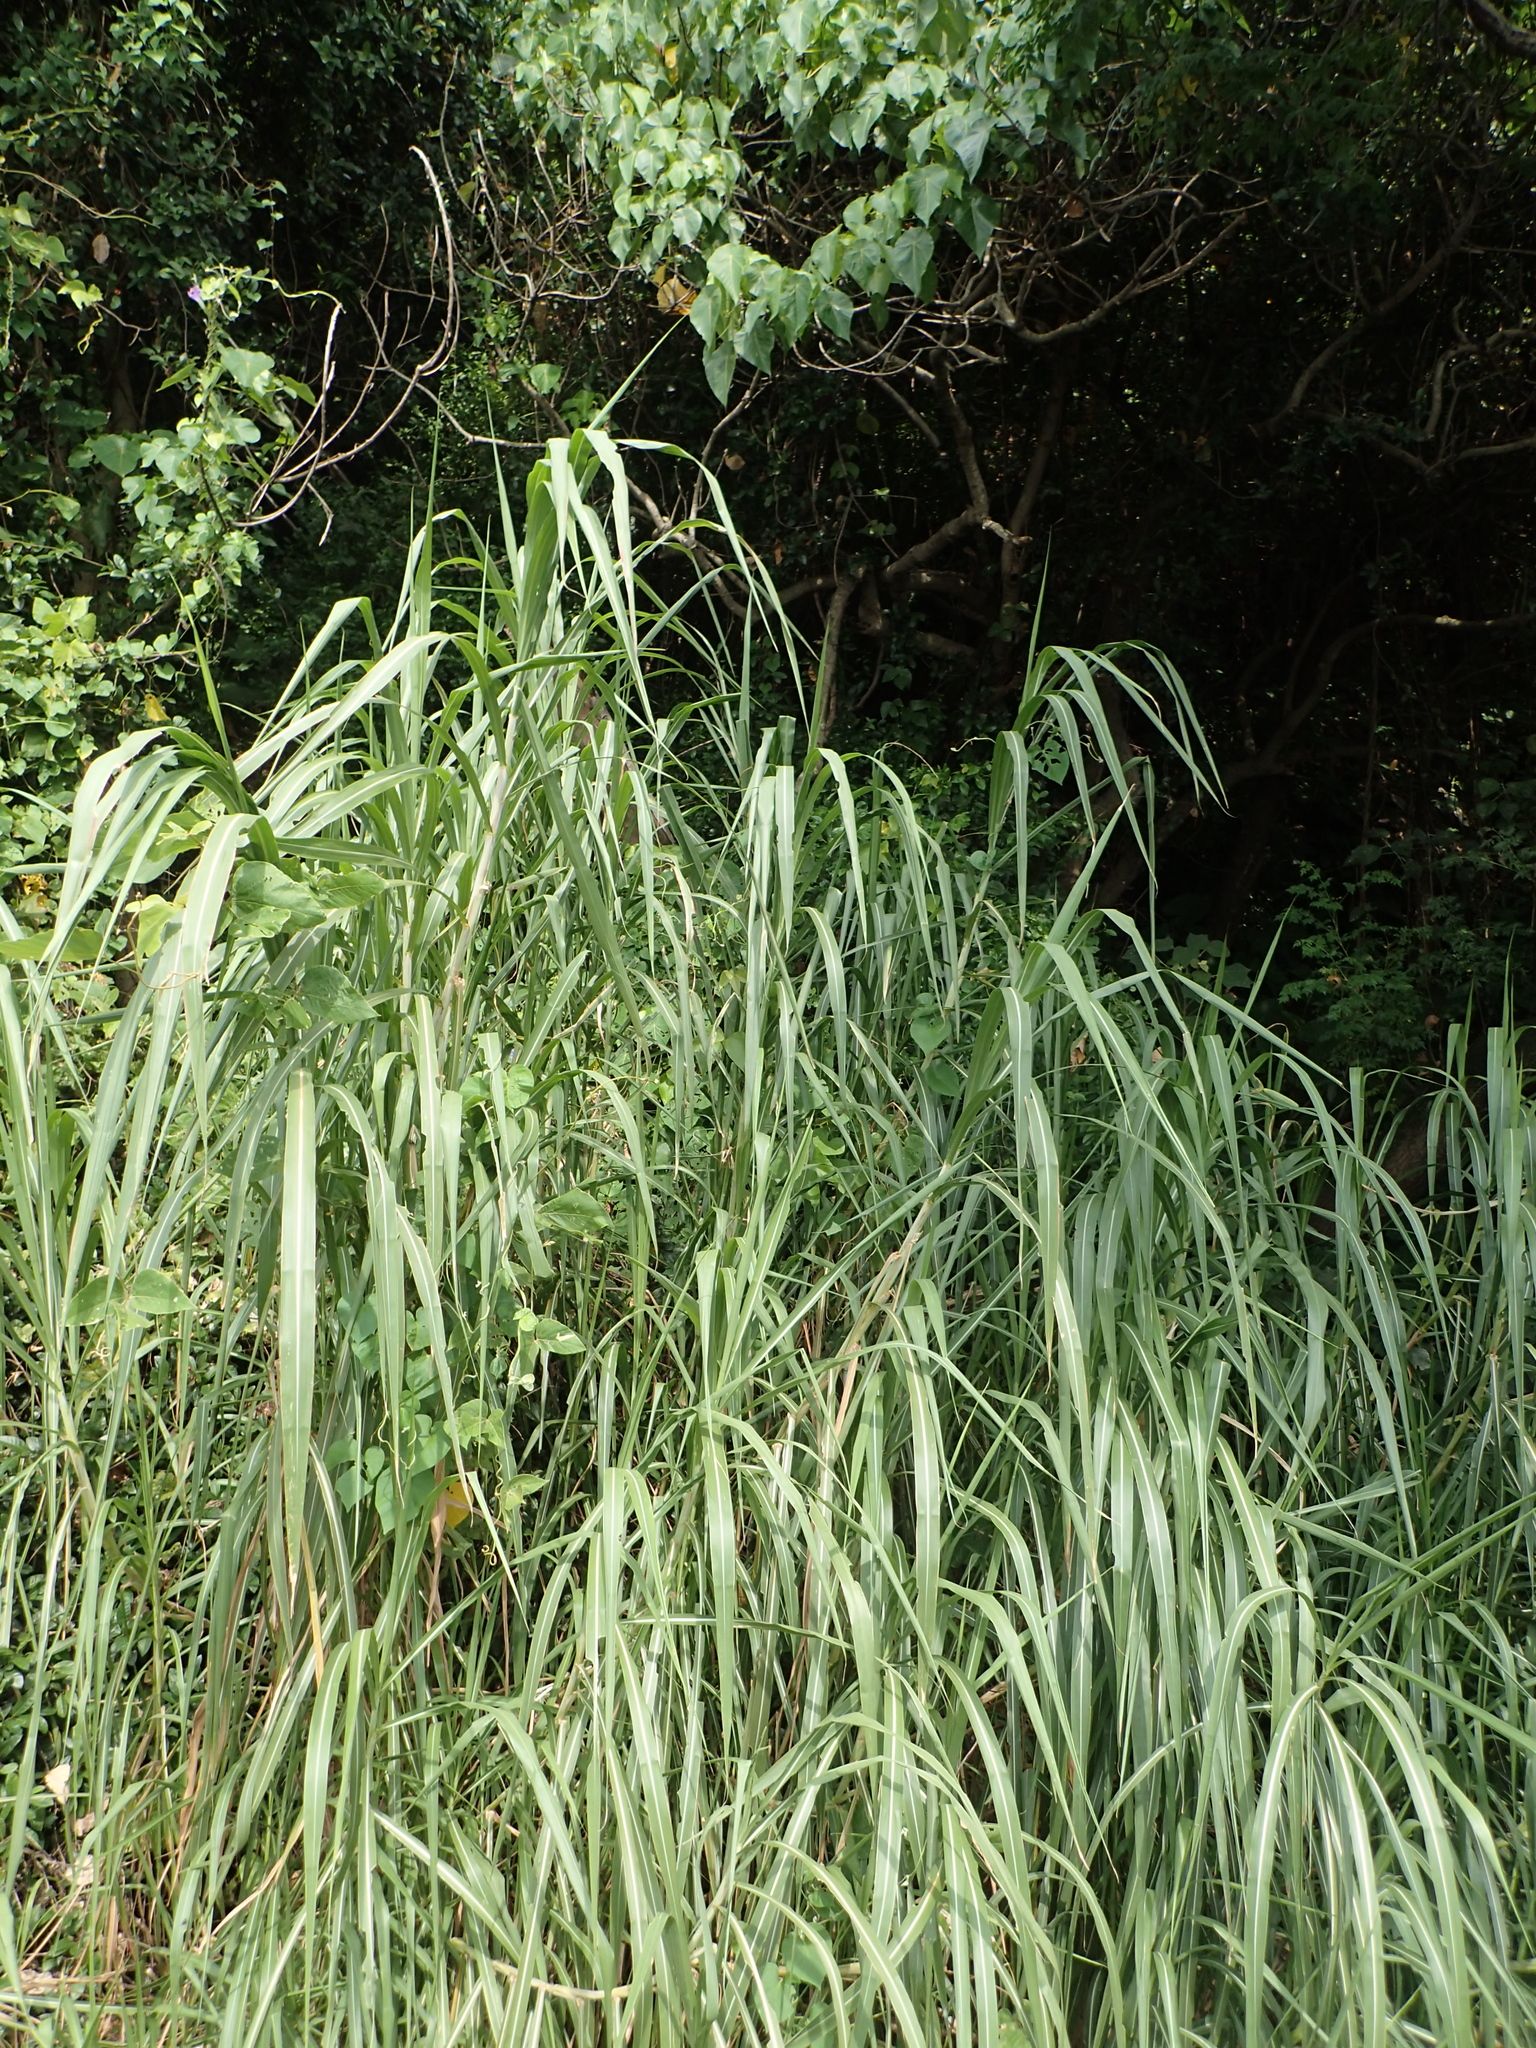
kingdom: Plantae
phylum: Tracheophyta
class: Liliopsida
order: Poales
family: Poaceae
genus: Cenchrus
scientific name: Cenchrus purpureus
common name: Elephant grass
